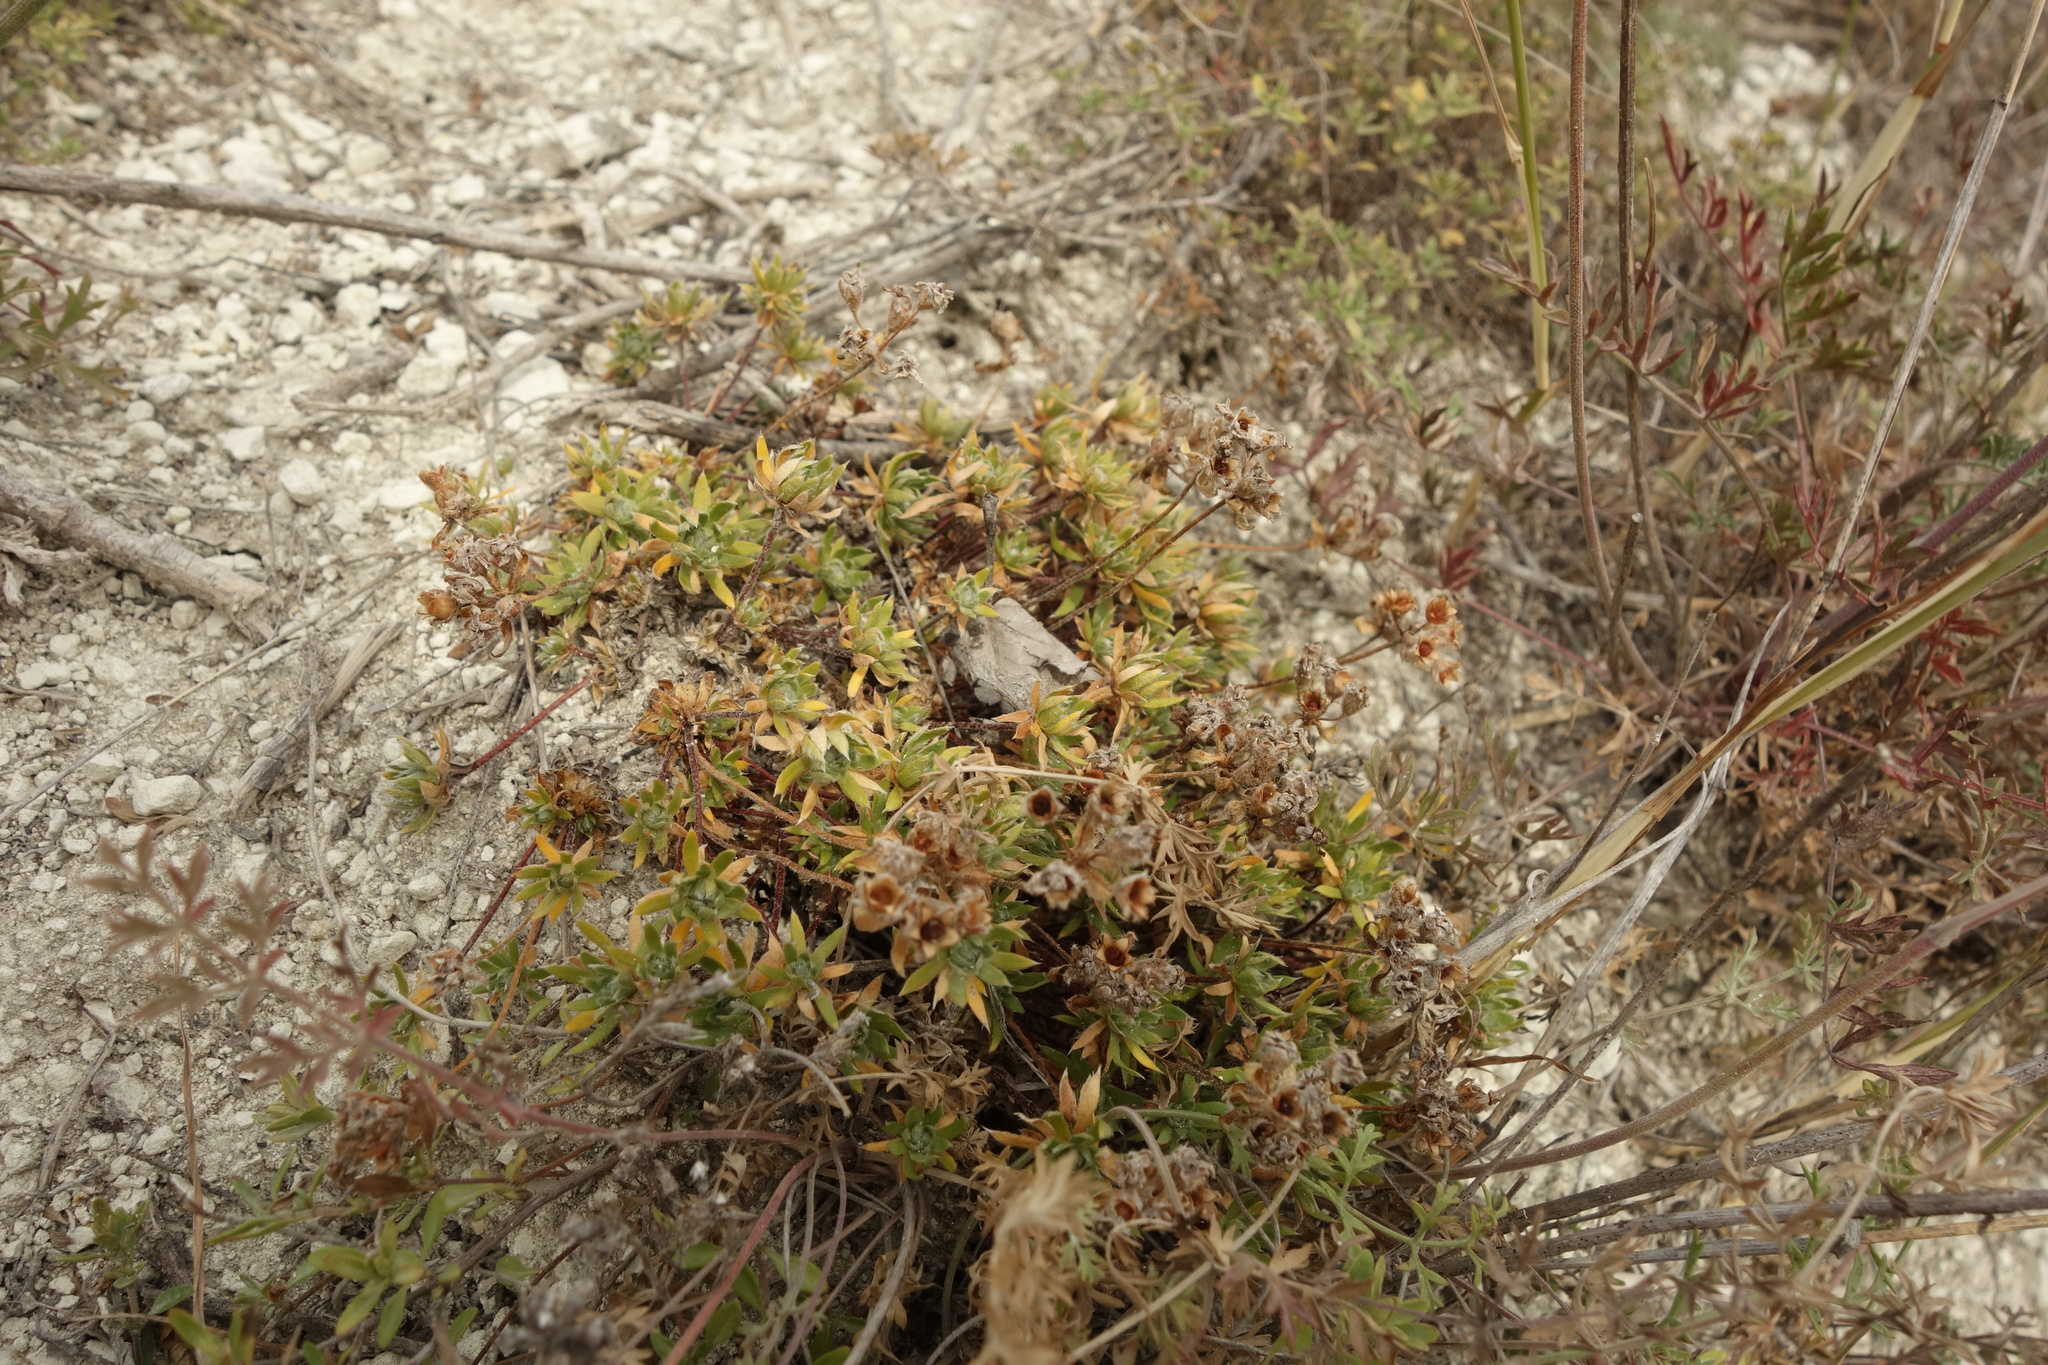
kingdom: Plantae
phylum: Tracheophyta
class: Magnoliopsida
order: Ericales
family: Primulaceae
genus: Androsace
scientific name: Androsace villosa
